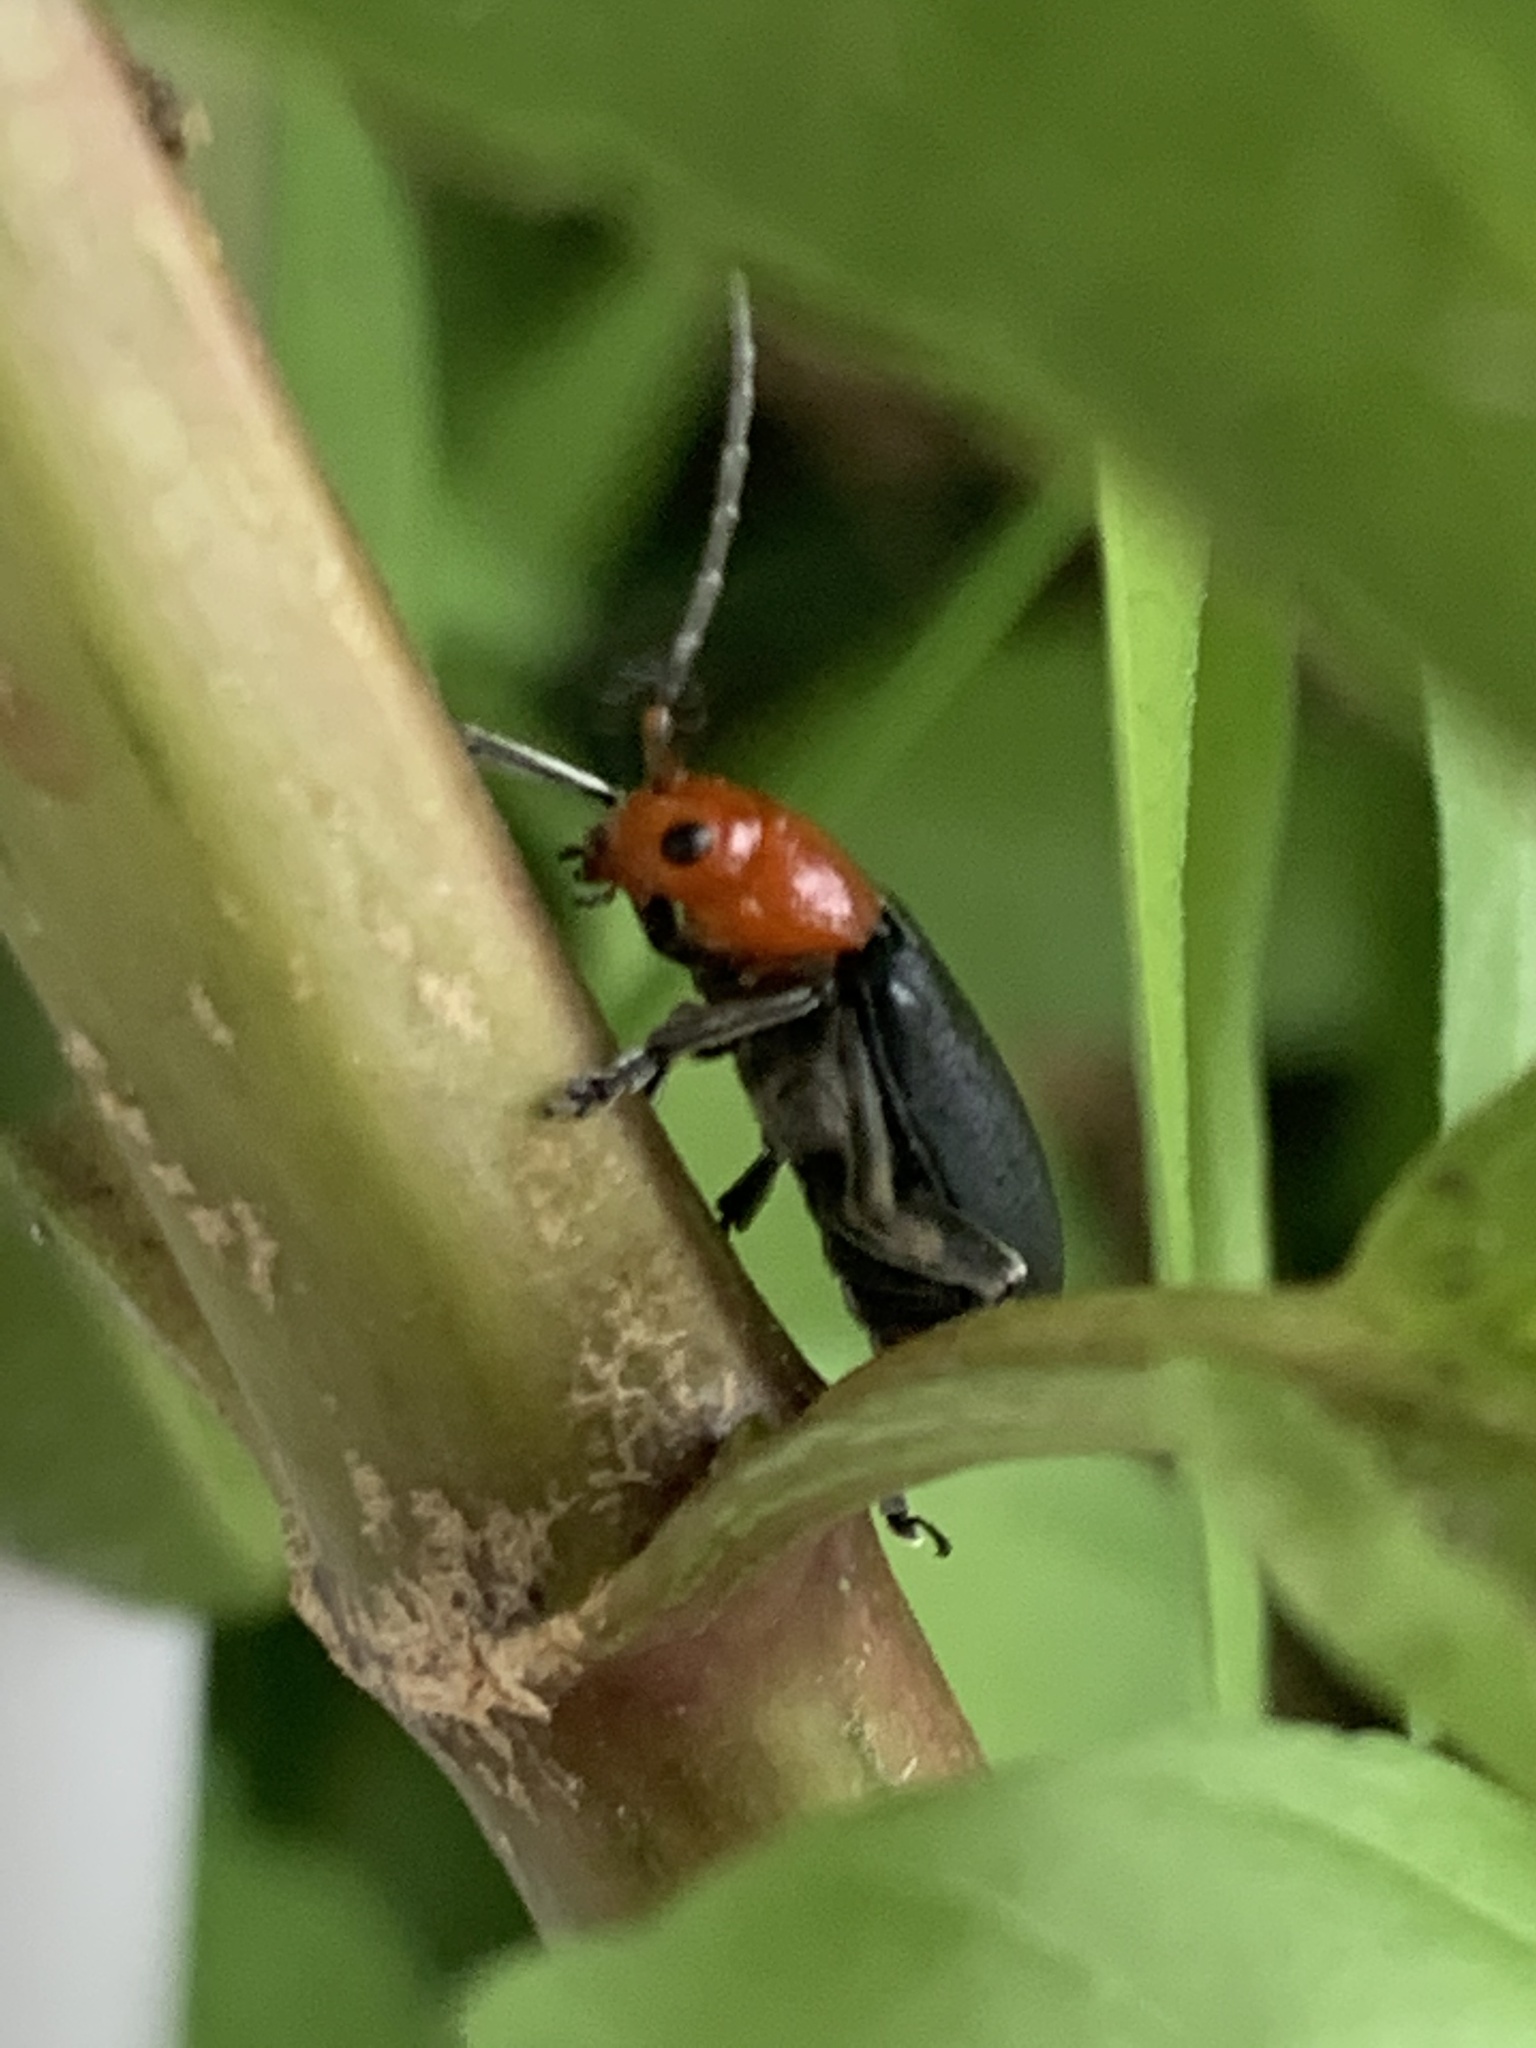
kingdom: Animalia
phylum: Arthropoda
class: Insecta
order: Coleoptera
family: Chrysomelidae
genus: Cacoscelis
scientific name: Cacoscelis
